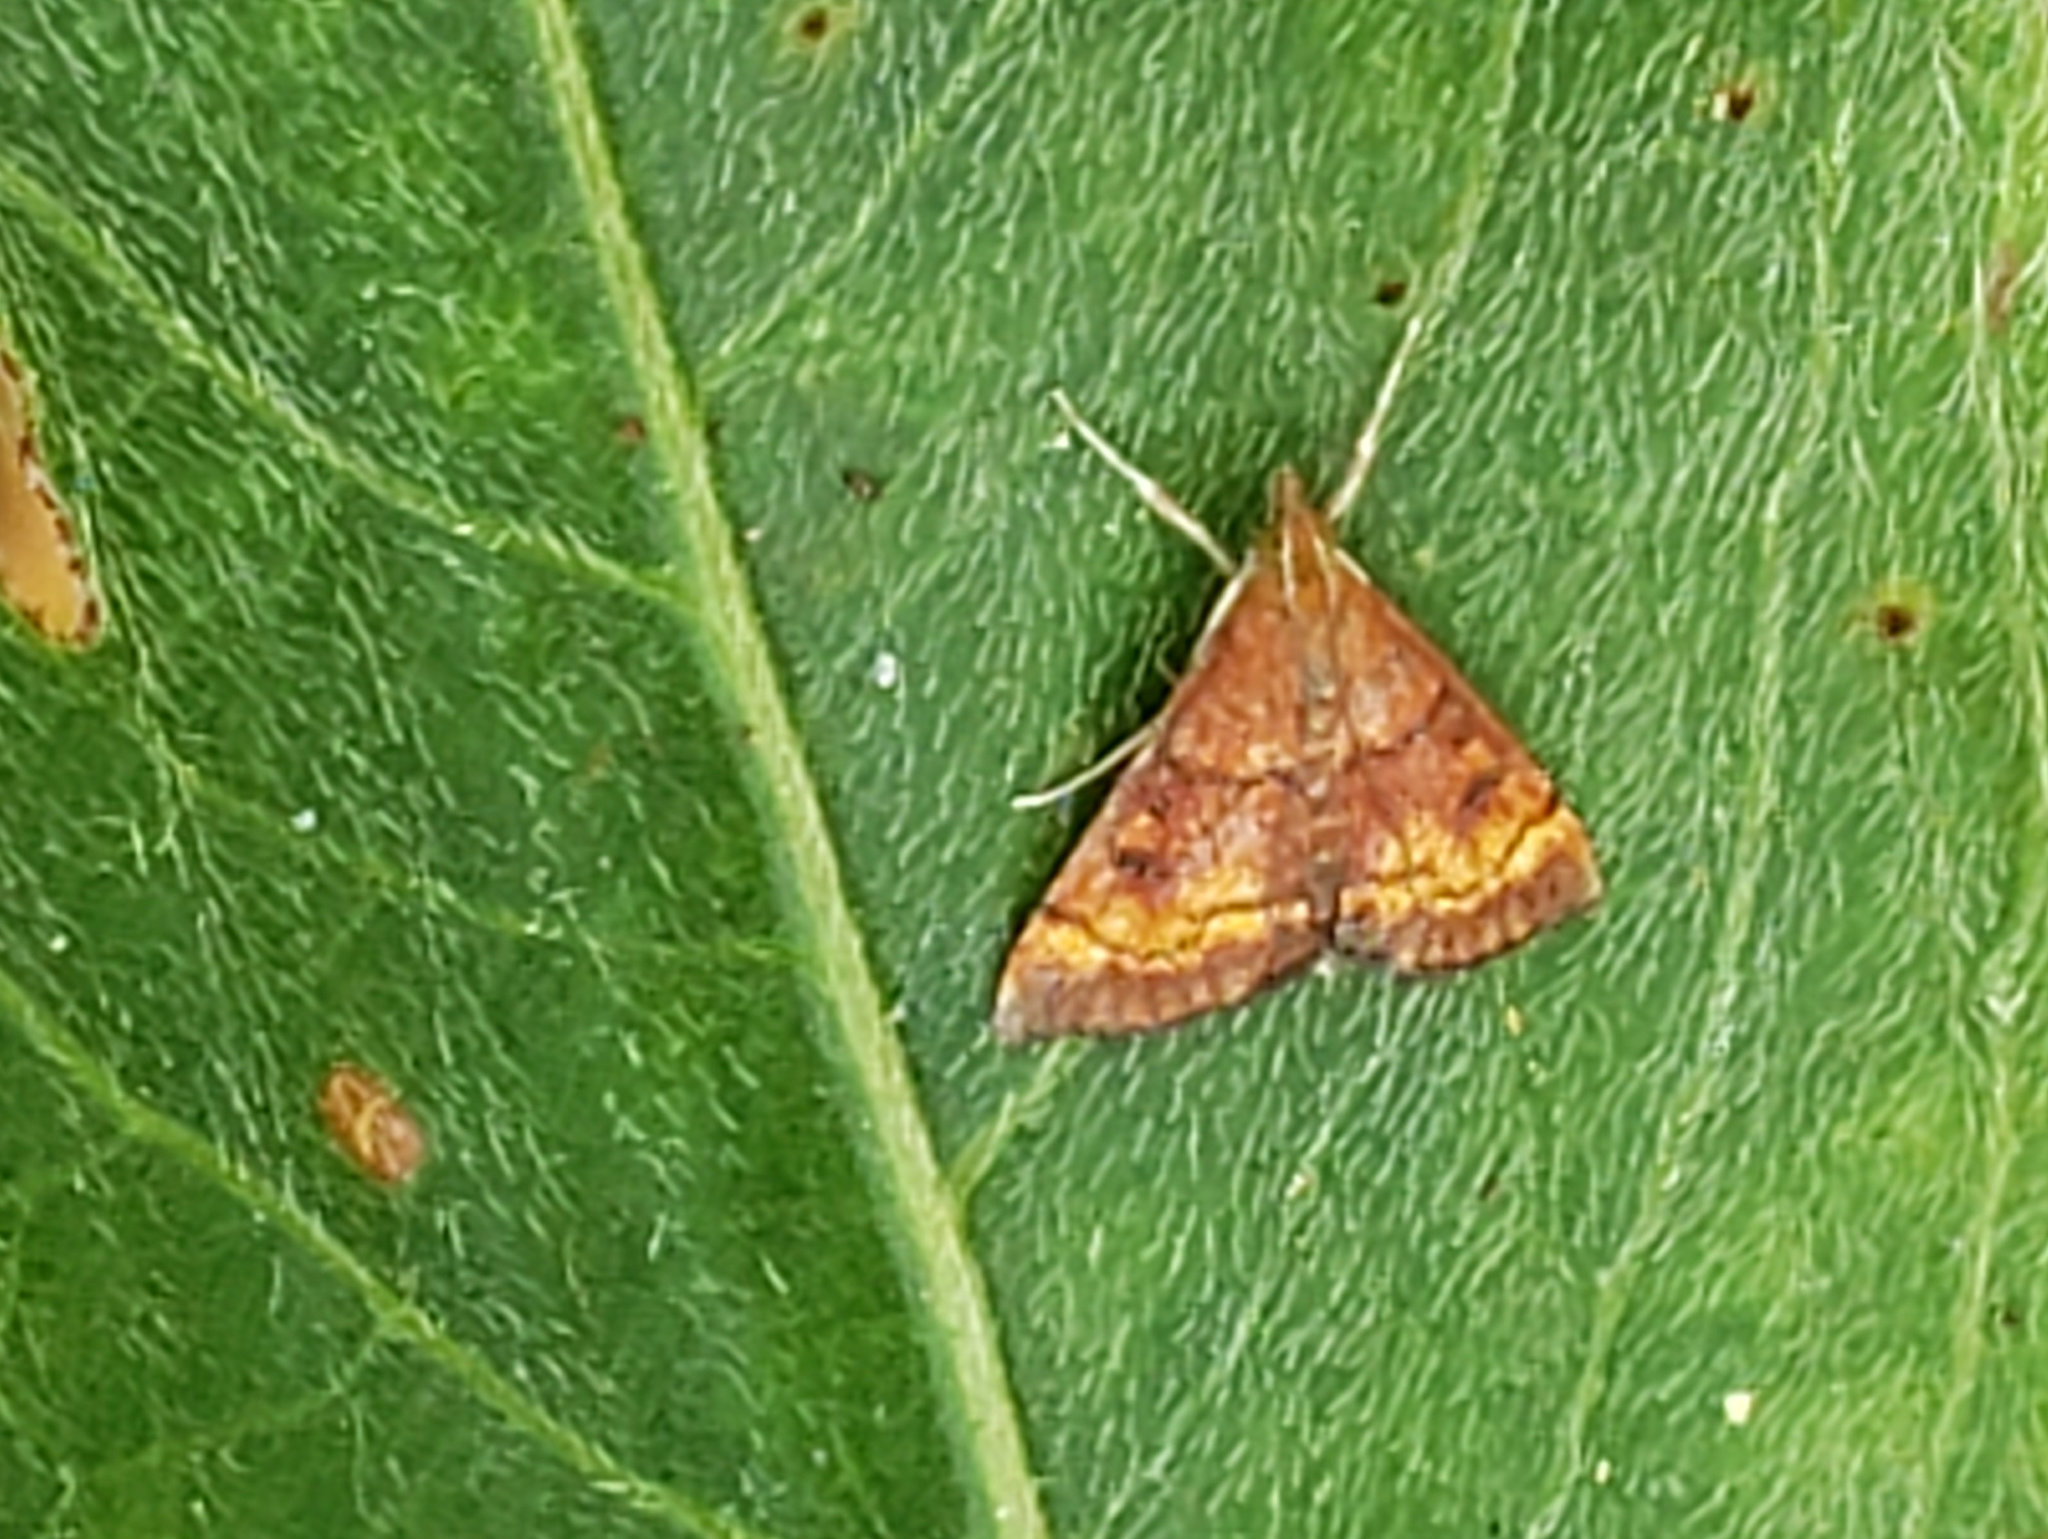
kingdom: Animalia
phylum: Arthropoda
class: Insecta
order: Lepidoptera
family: Crambidae
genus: Pyrausta
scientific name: Pyrausta californicalis
